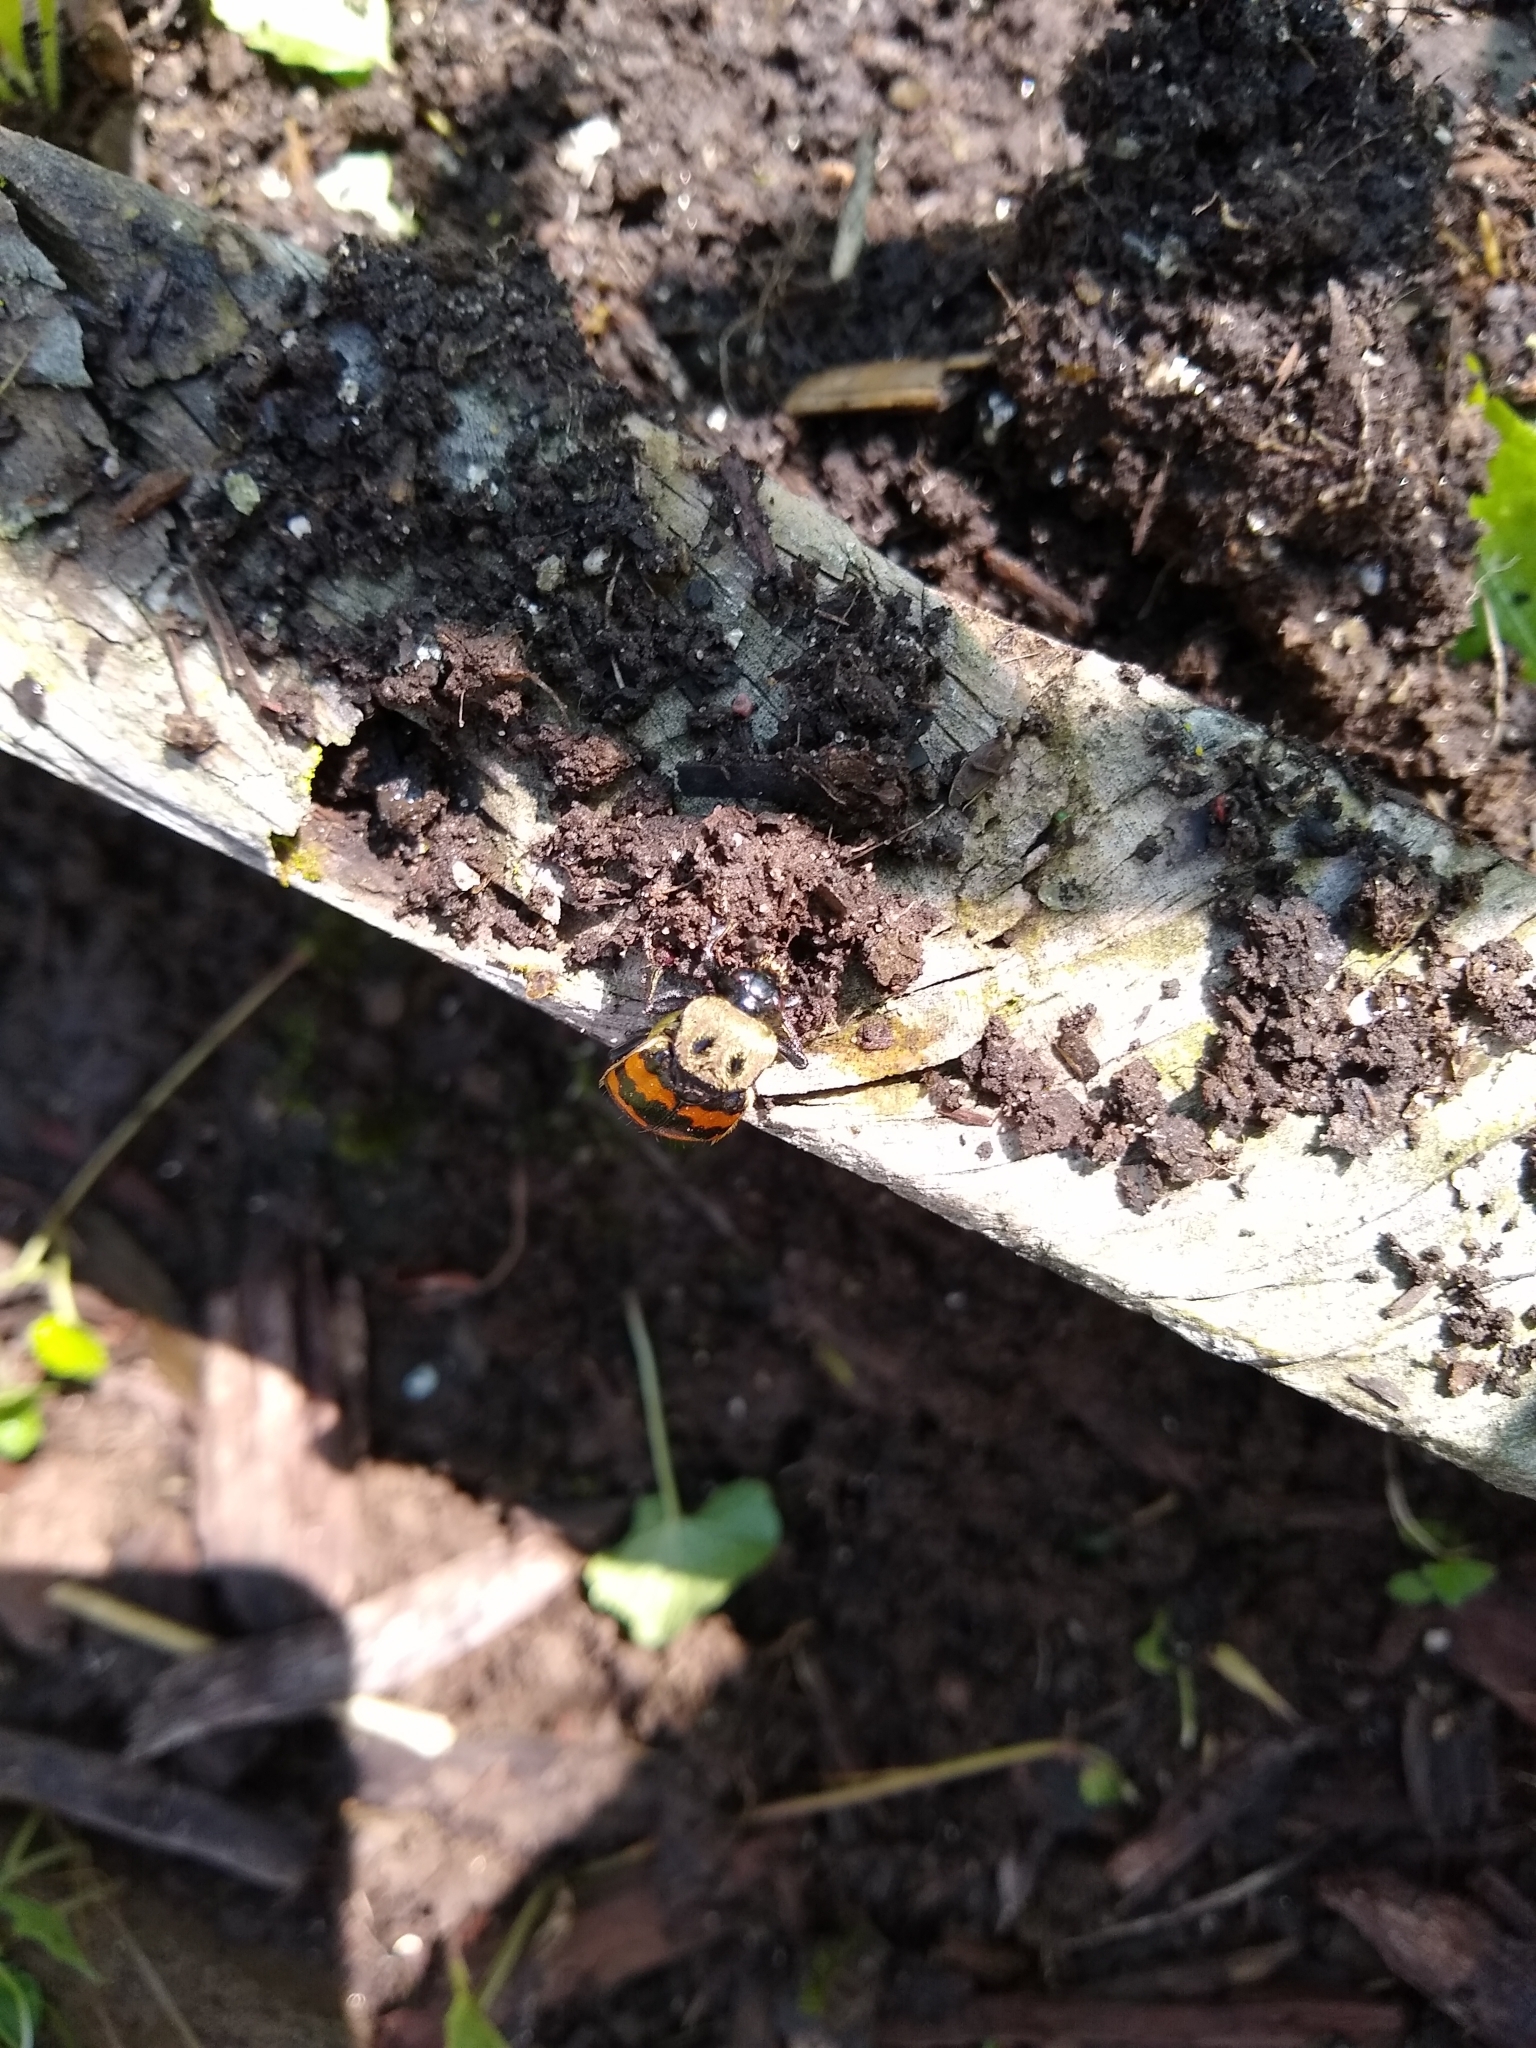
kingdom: Animalia
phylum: Arthropoda
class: Insecta
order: Coleoptera
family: Staphylinidae
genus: Nicrophorus
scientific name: Nicrophorus tomentosus
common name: Tomentose burying beetle
